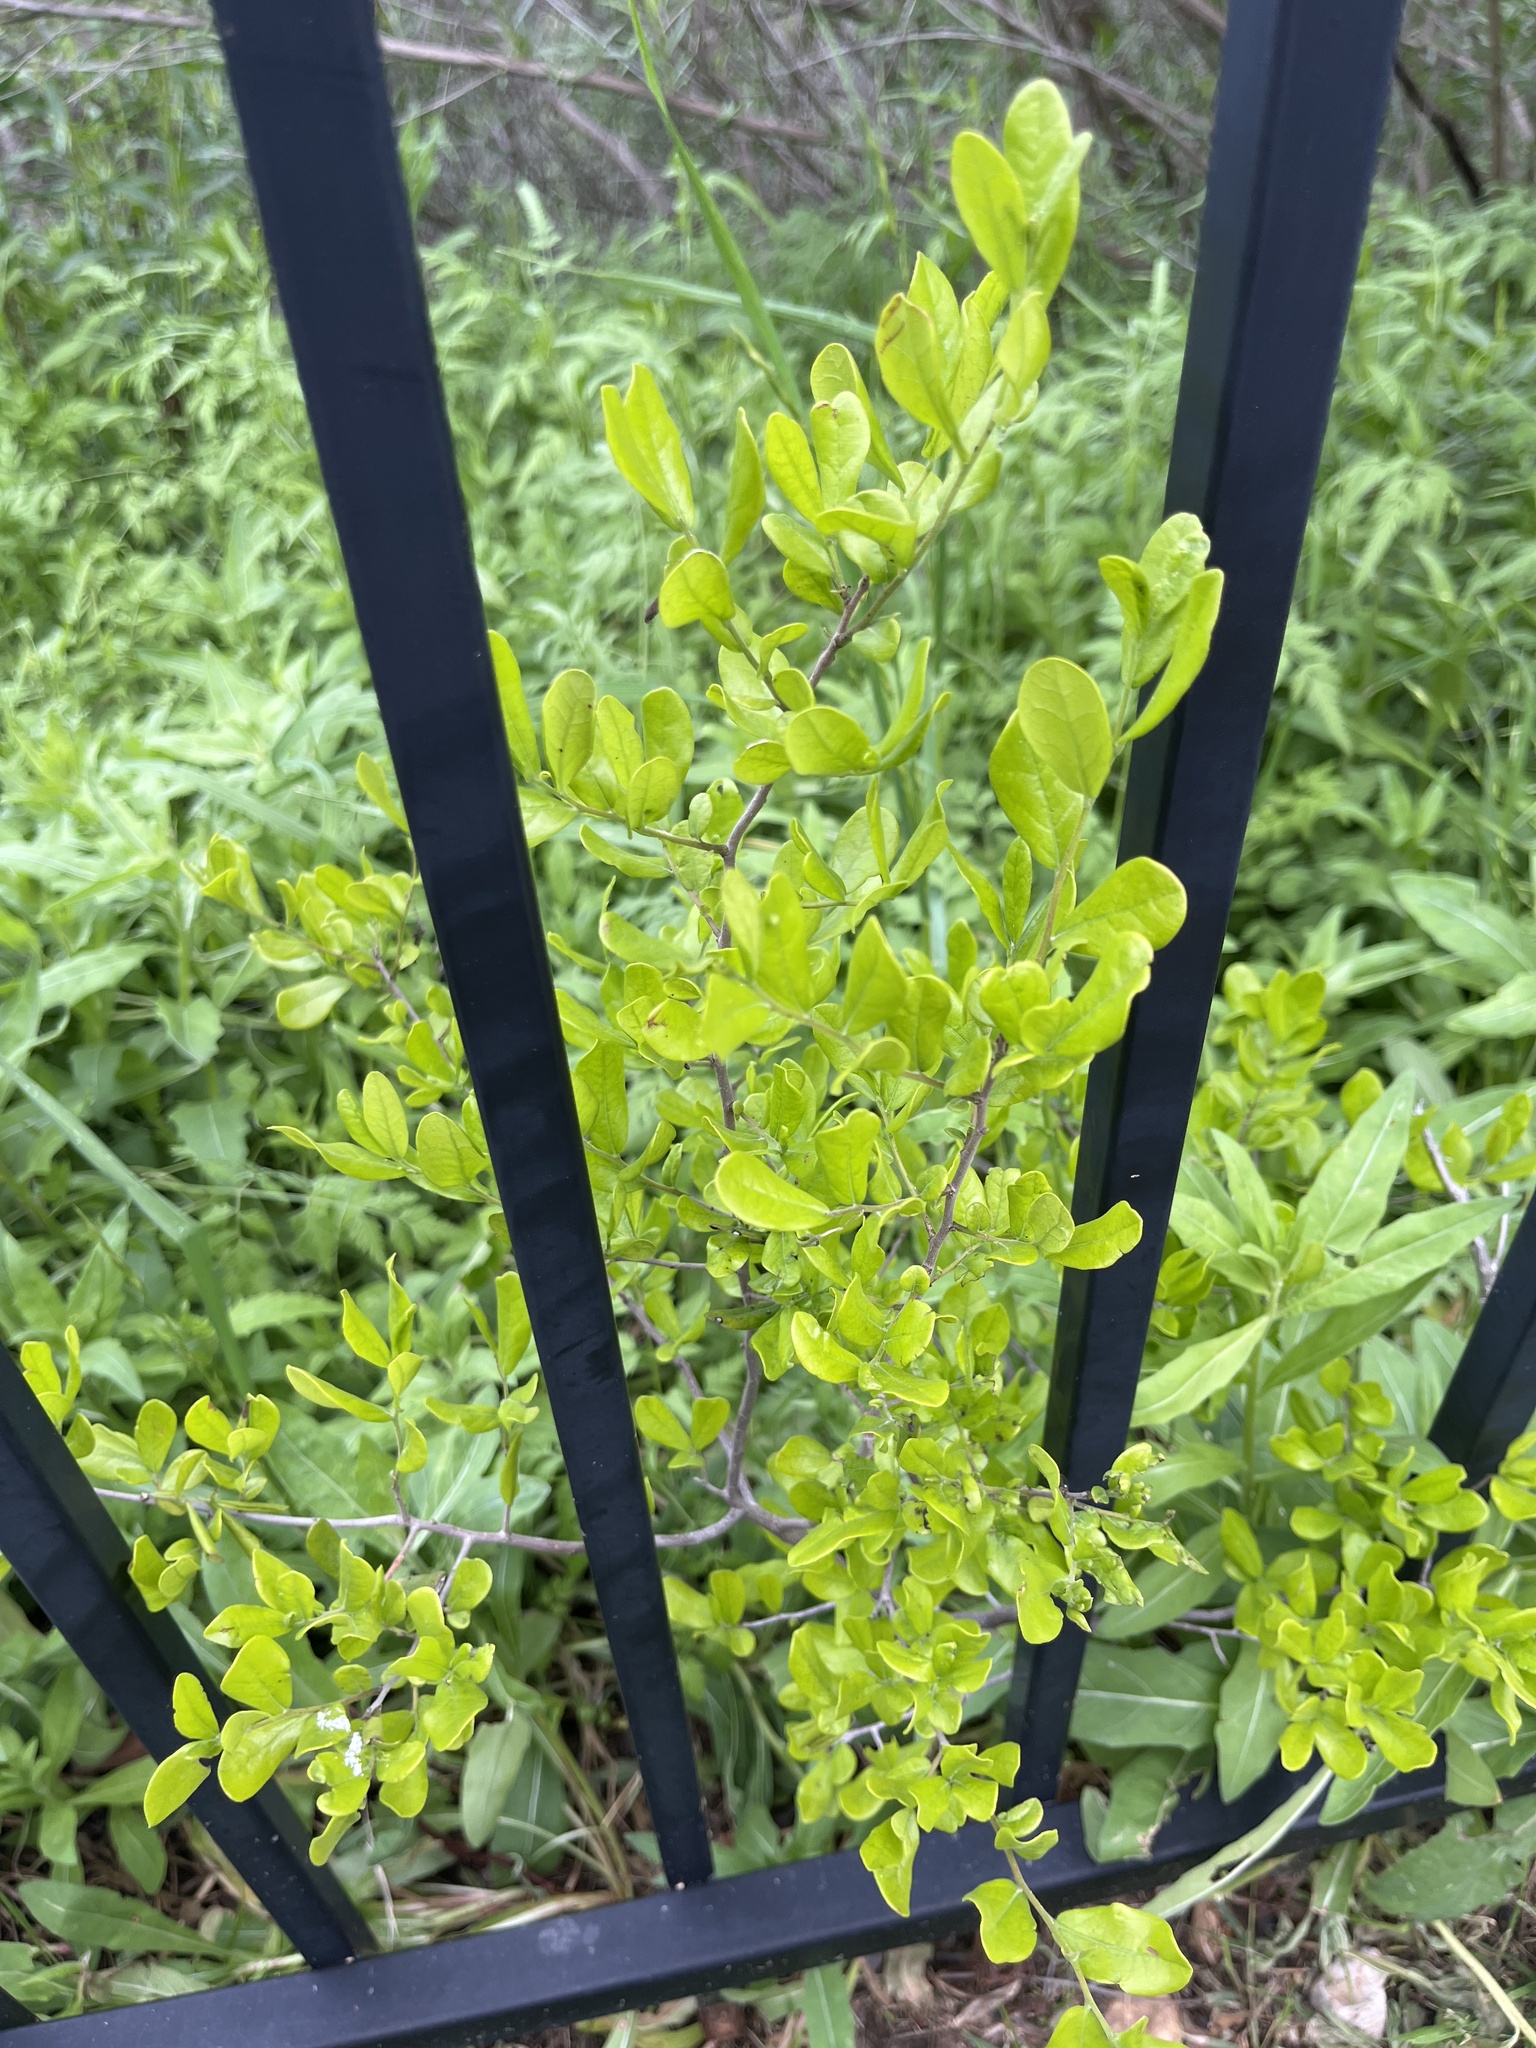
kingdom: Plantae
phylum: Tracheophyta
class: Magnoliopsida
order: Ericales
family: Ebenaceae
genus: Diospyros
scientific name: Diospyros texana
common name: Texas persimmon
